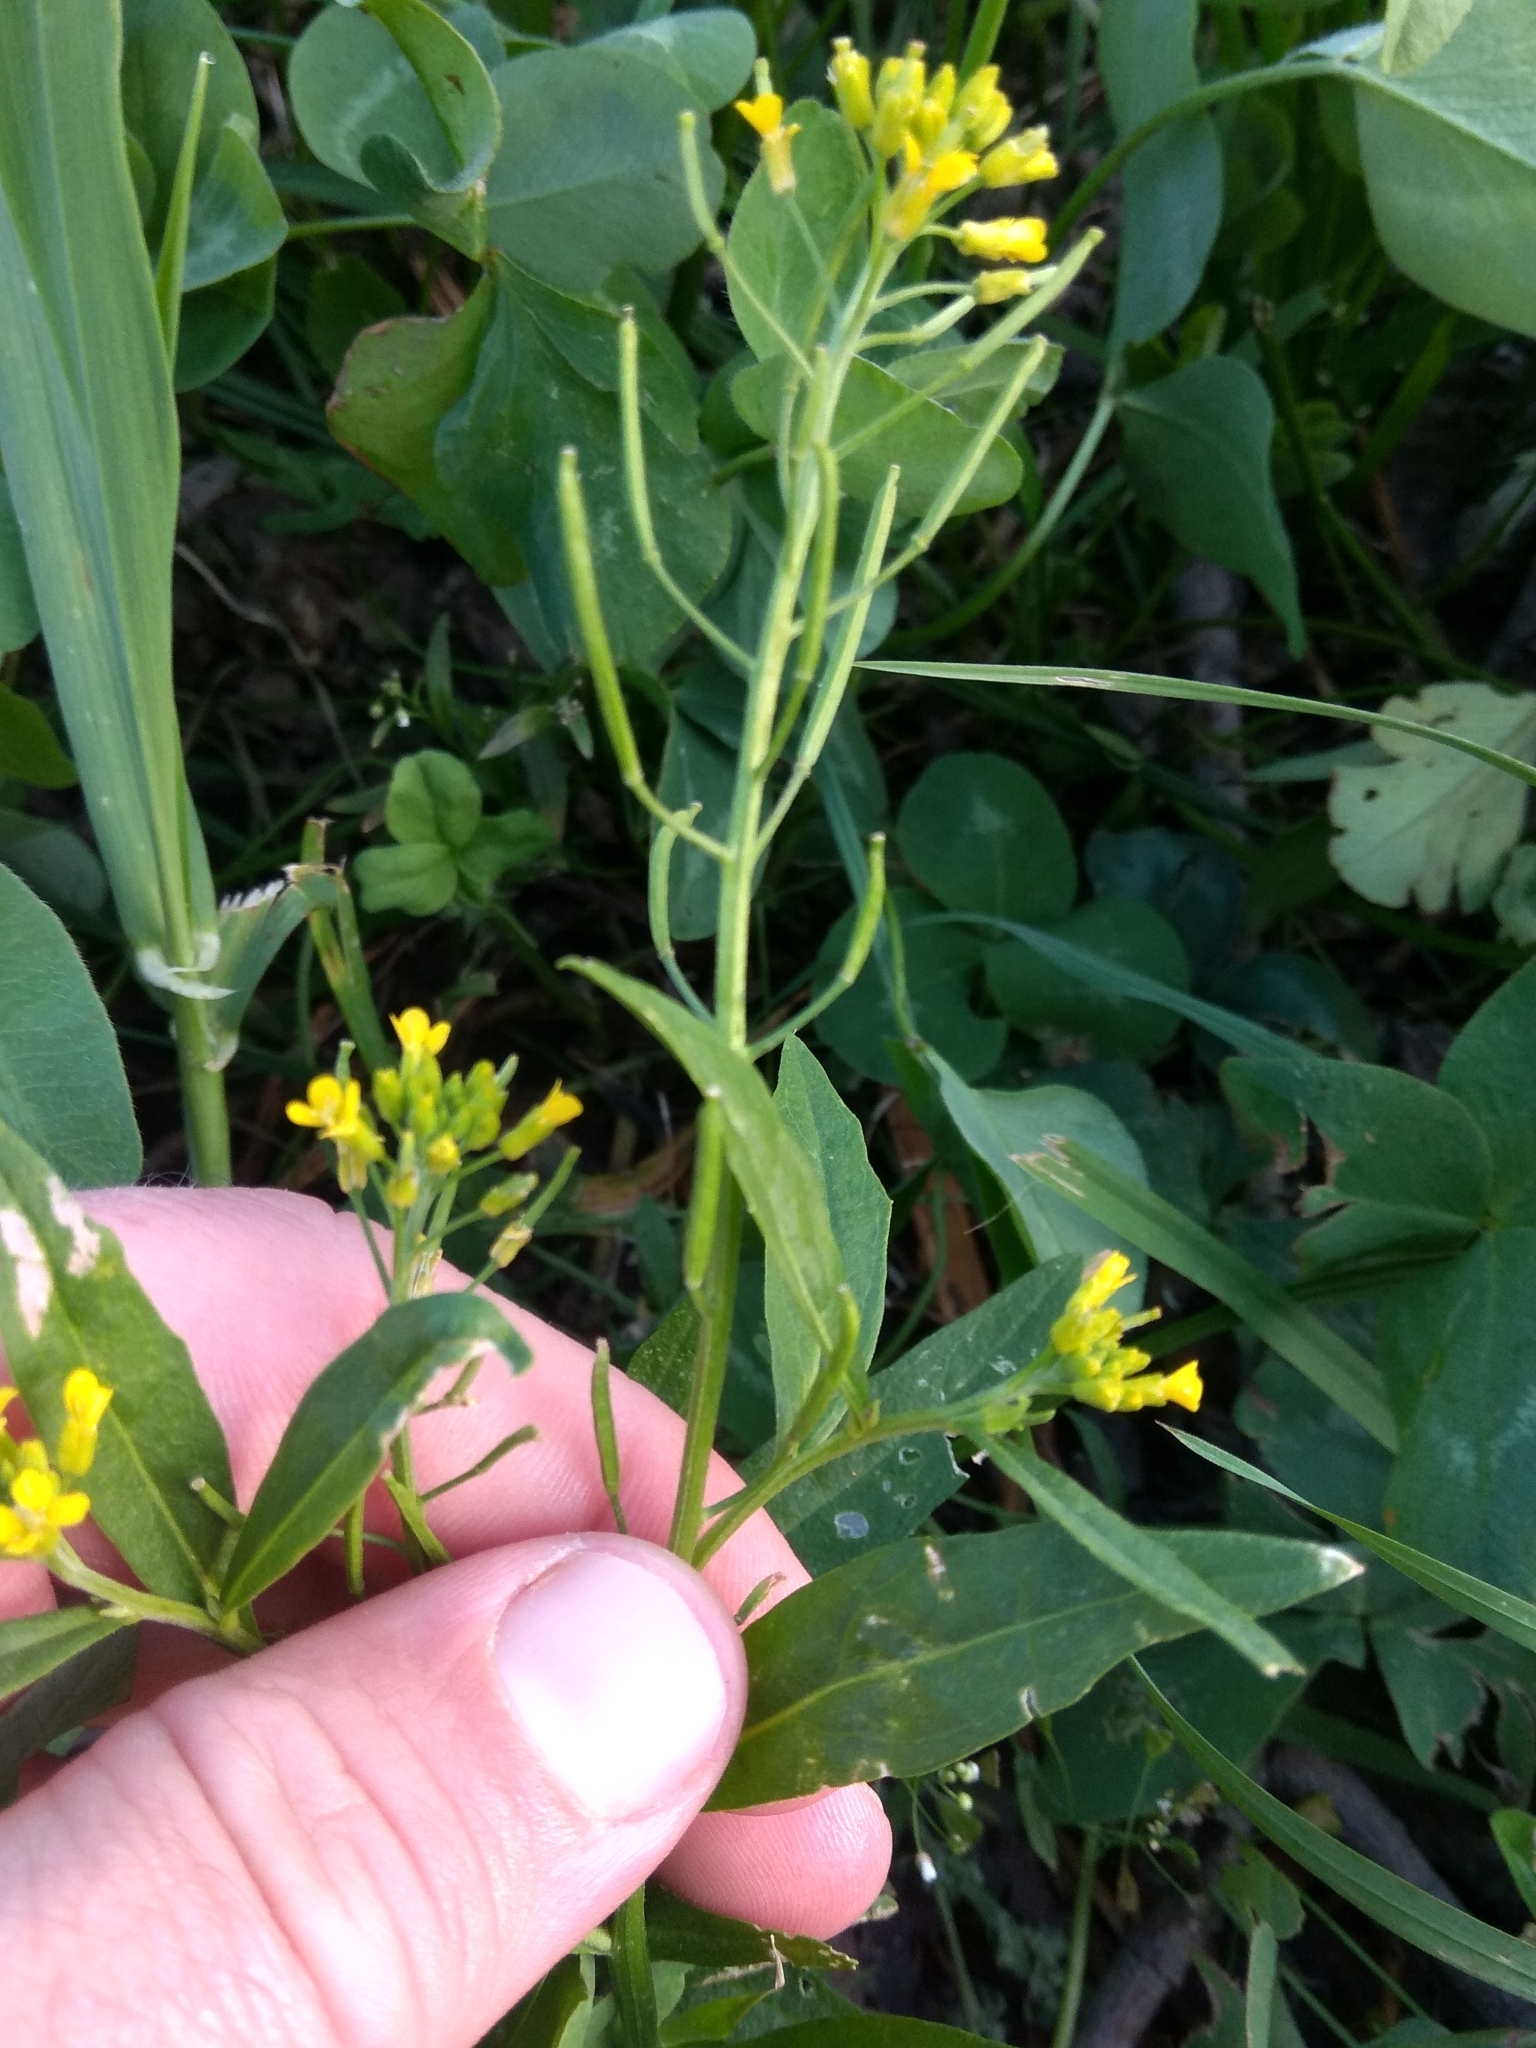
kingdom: Plantae
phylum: Tracheophyta
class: Magnoliopsida
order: Brassicales
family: Brassicaceae
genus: Erysimum
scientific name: Erysimum cheiranthoides
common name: Treacle mustard
